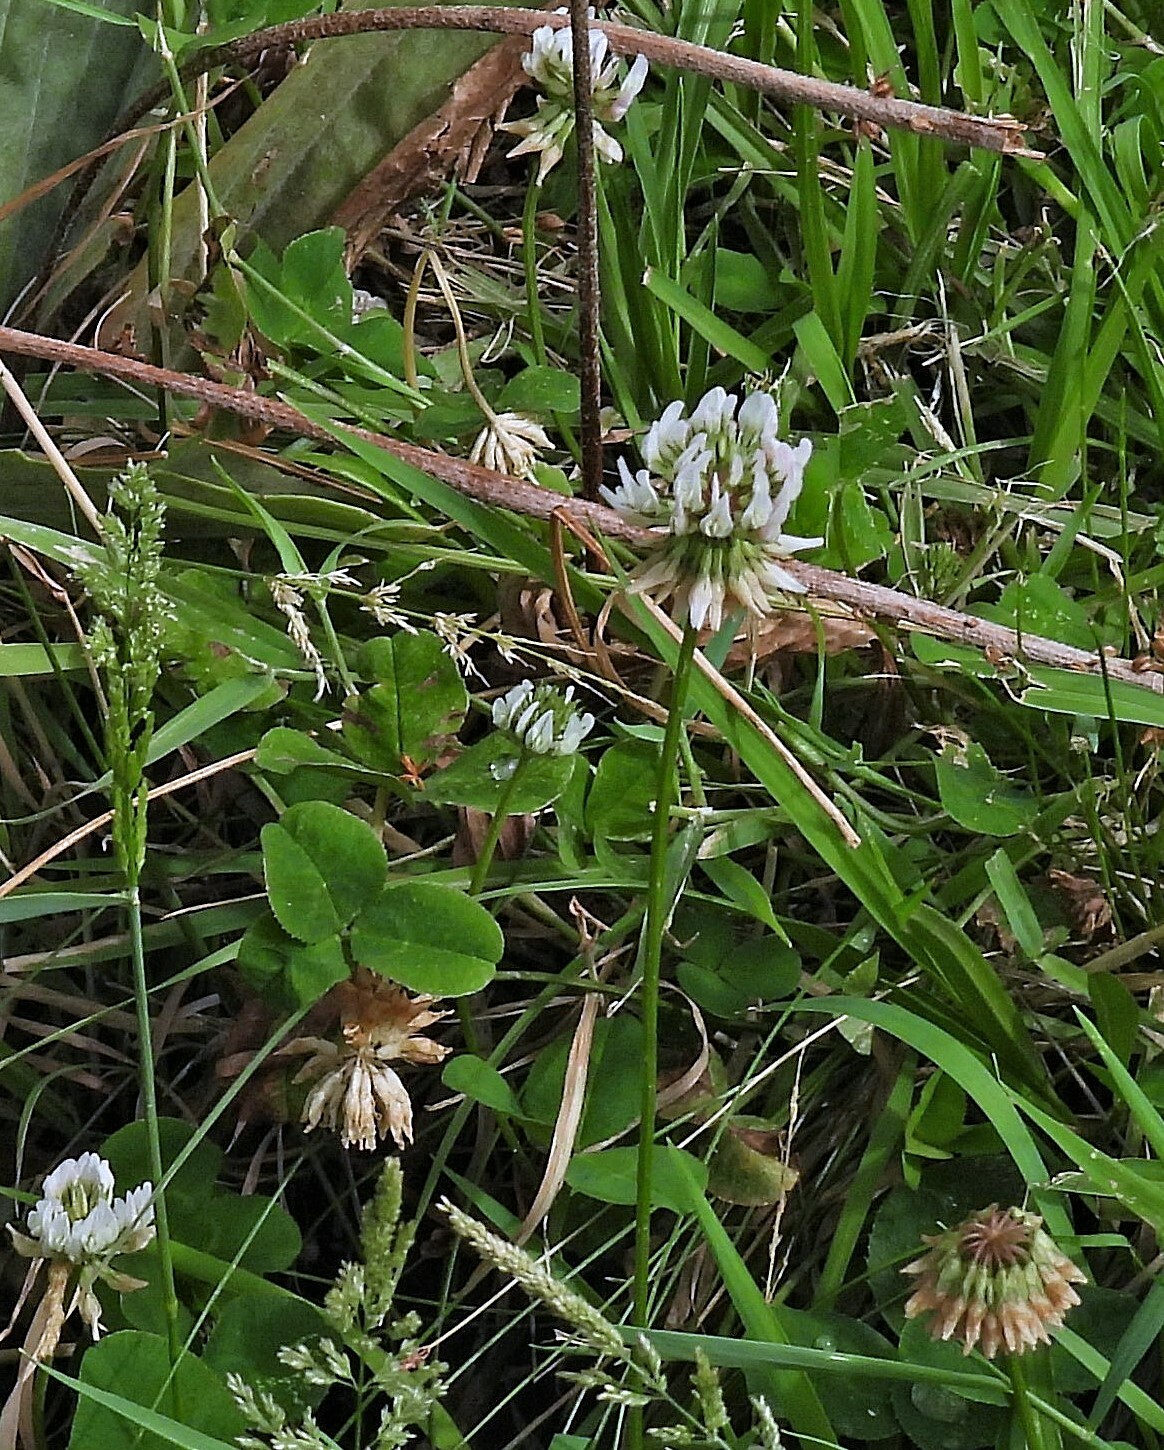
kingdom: Plantae
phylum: Tracheophyta
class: Magnoliopsida
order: Fabales
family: Fabaceae
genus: Trifolium
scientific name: Trifolium repens
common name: White clover
